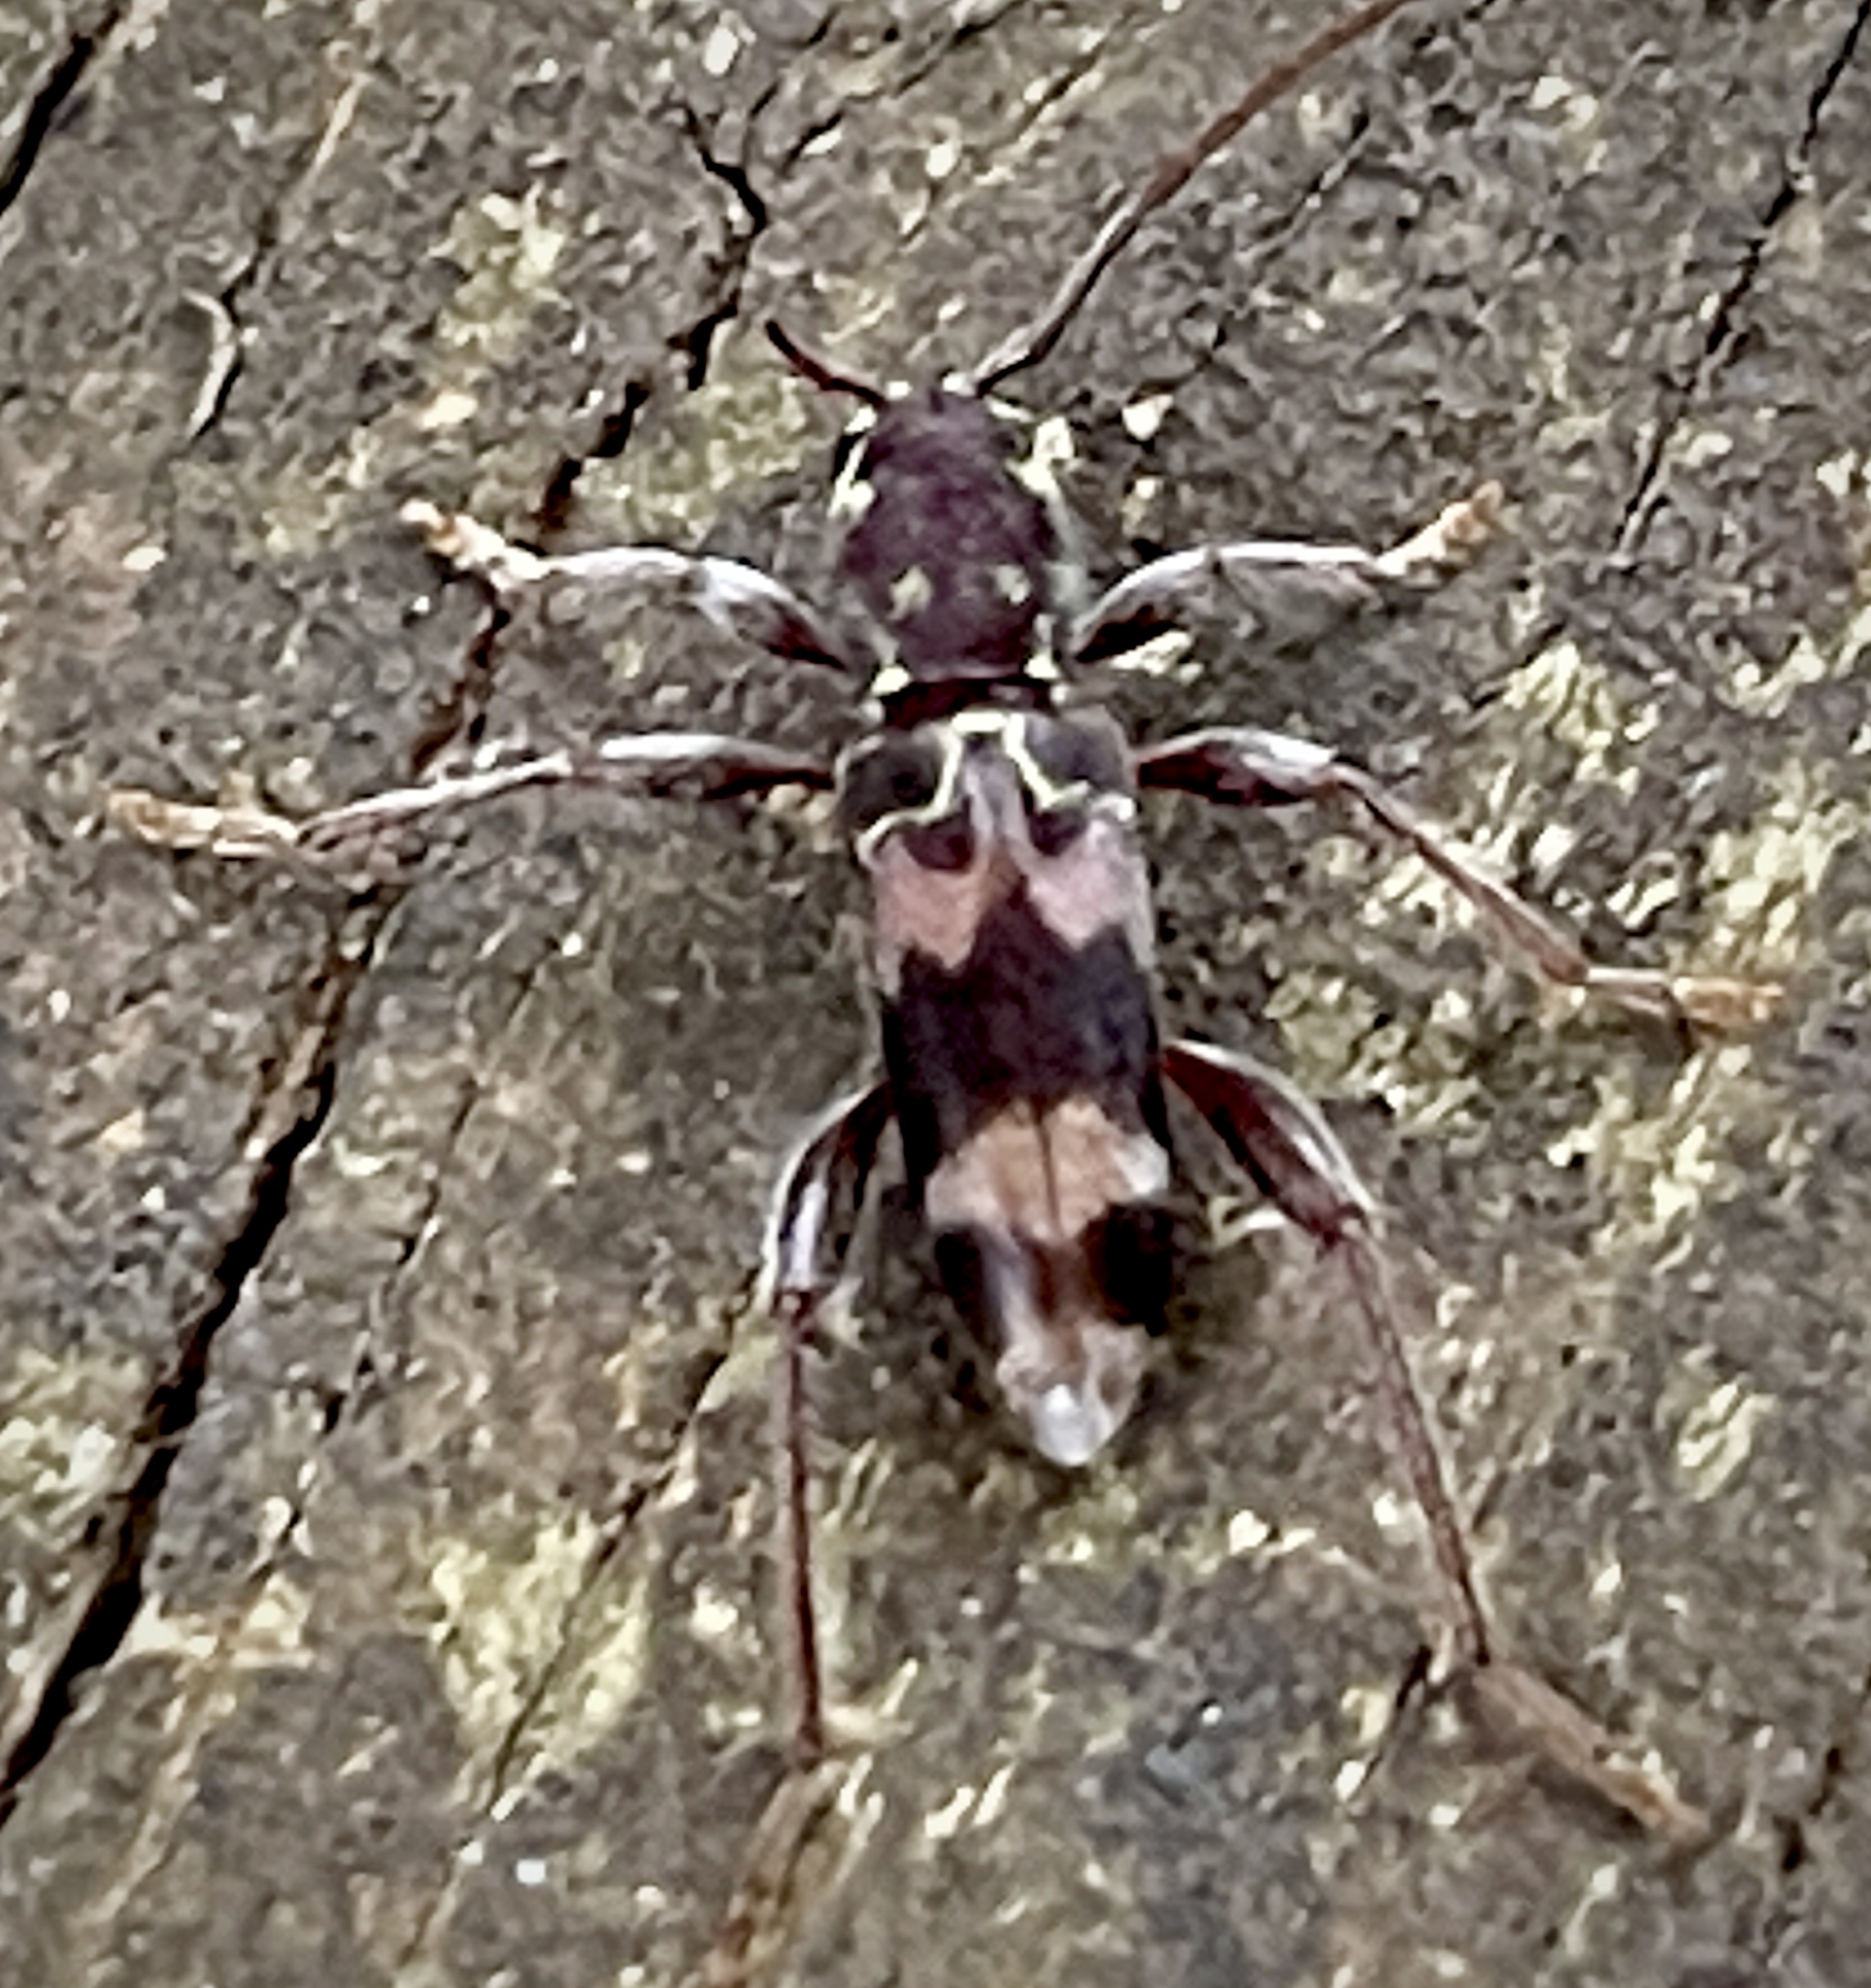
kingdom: Animalia
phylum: Arthropoda
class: Insecta
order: Coleoptera
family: Cerambycidae
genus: Xylotrechus
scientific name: Xylotrechus colonus
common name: Long-horned beetle
